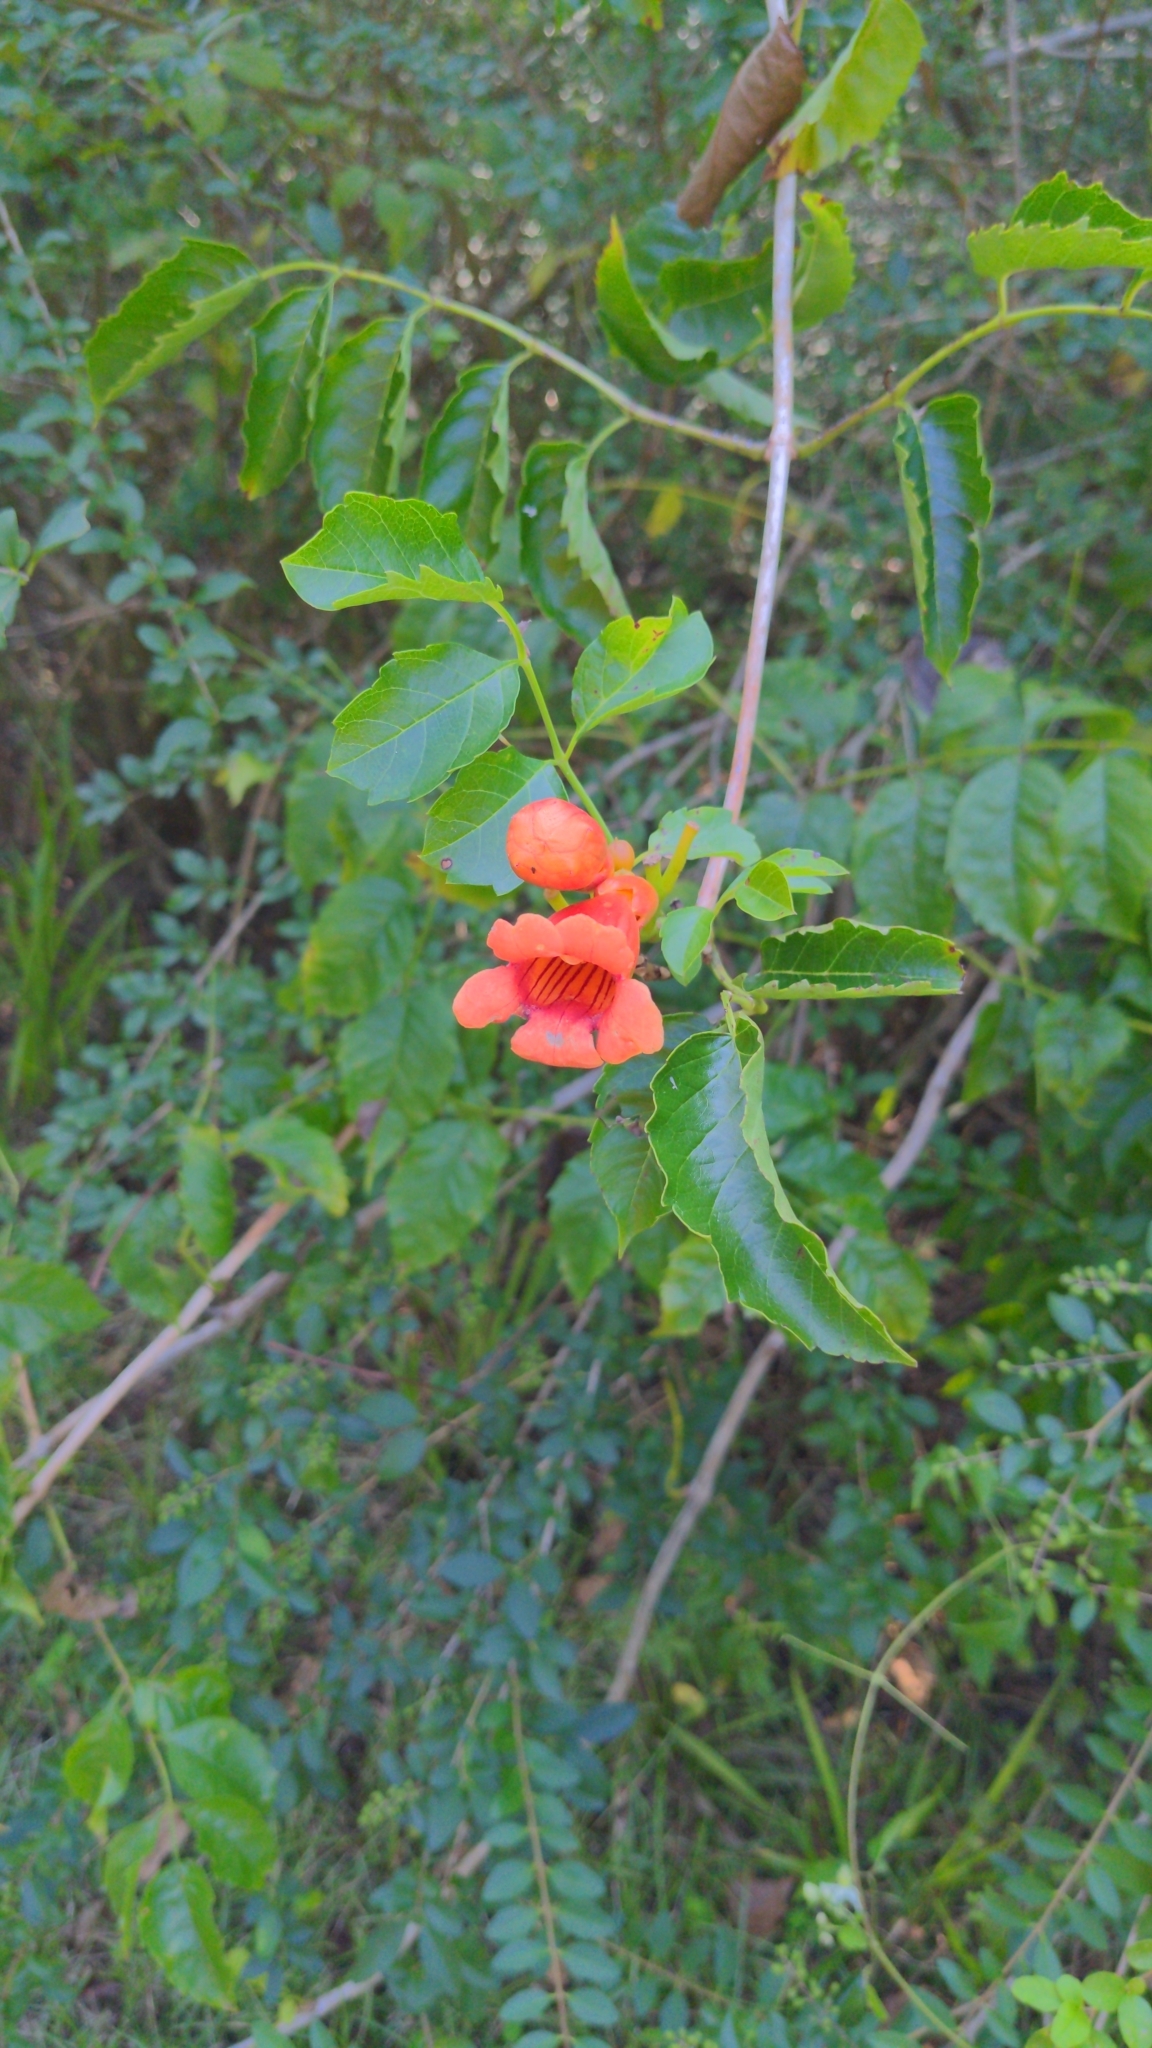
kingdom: Plantae
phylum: Tracheophyta
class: Magnoliopsida
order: Lamiales
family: Bignoniaceae
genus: Campsis
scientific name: Campsis radicans
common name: Trumpet-creeper
